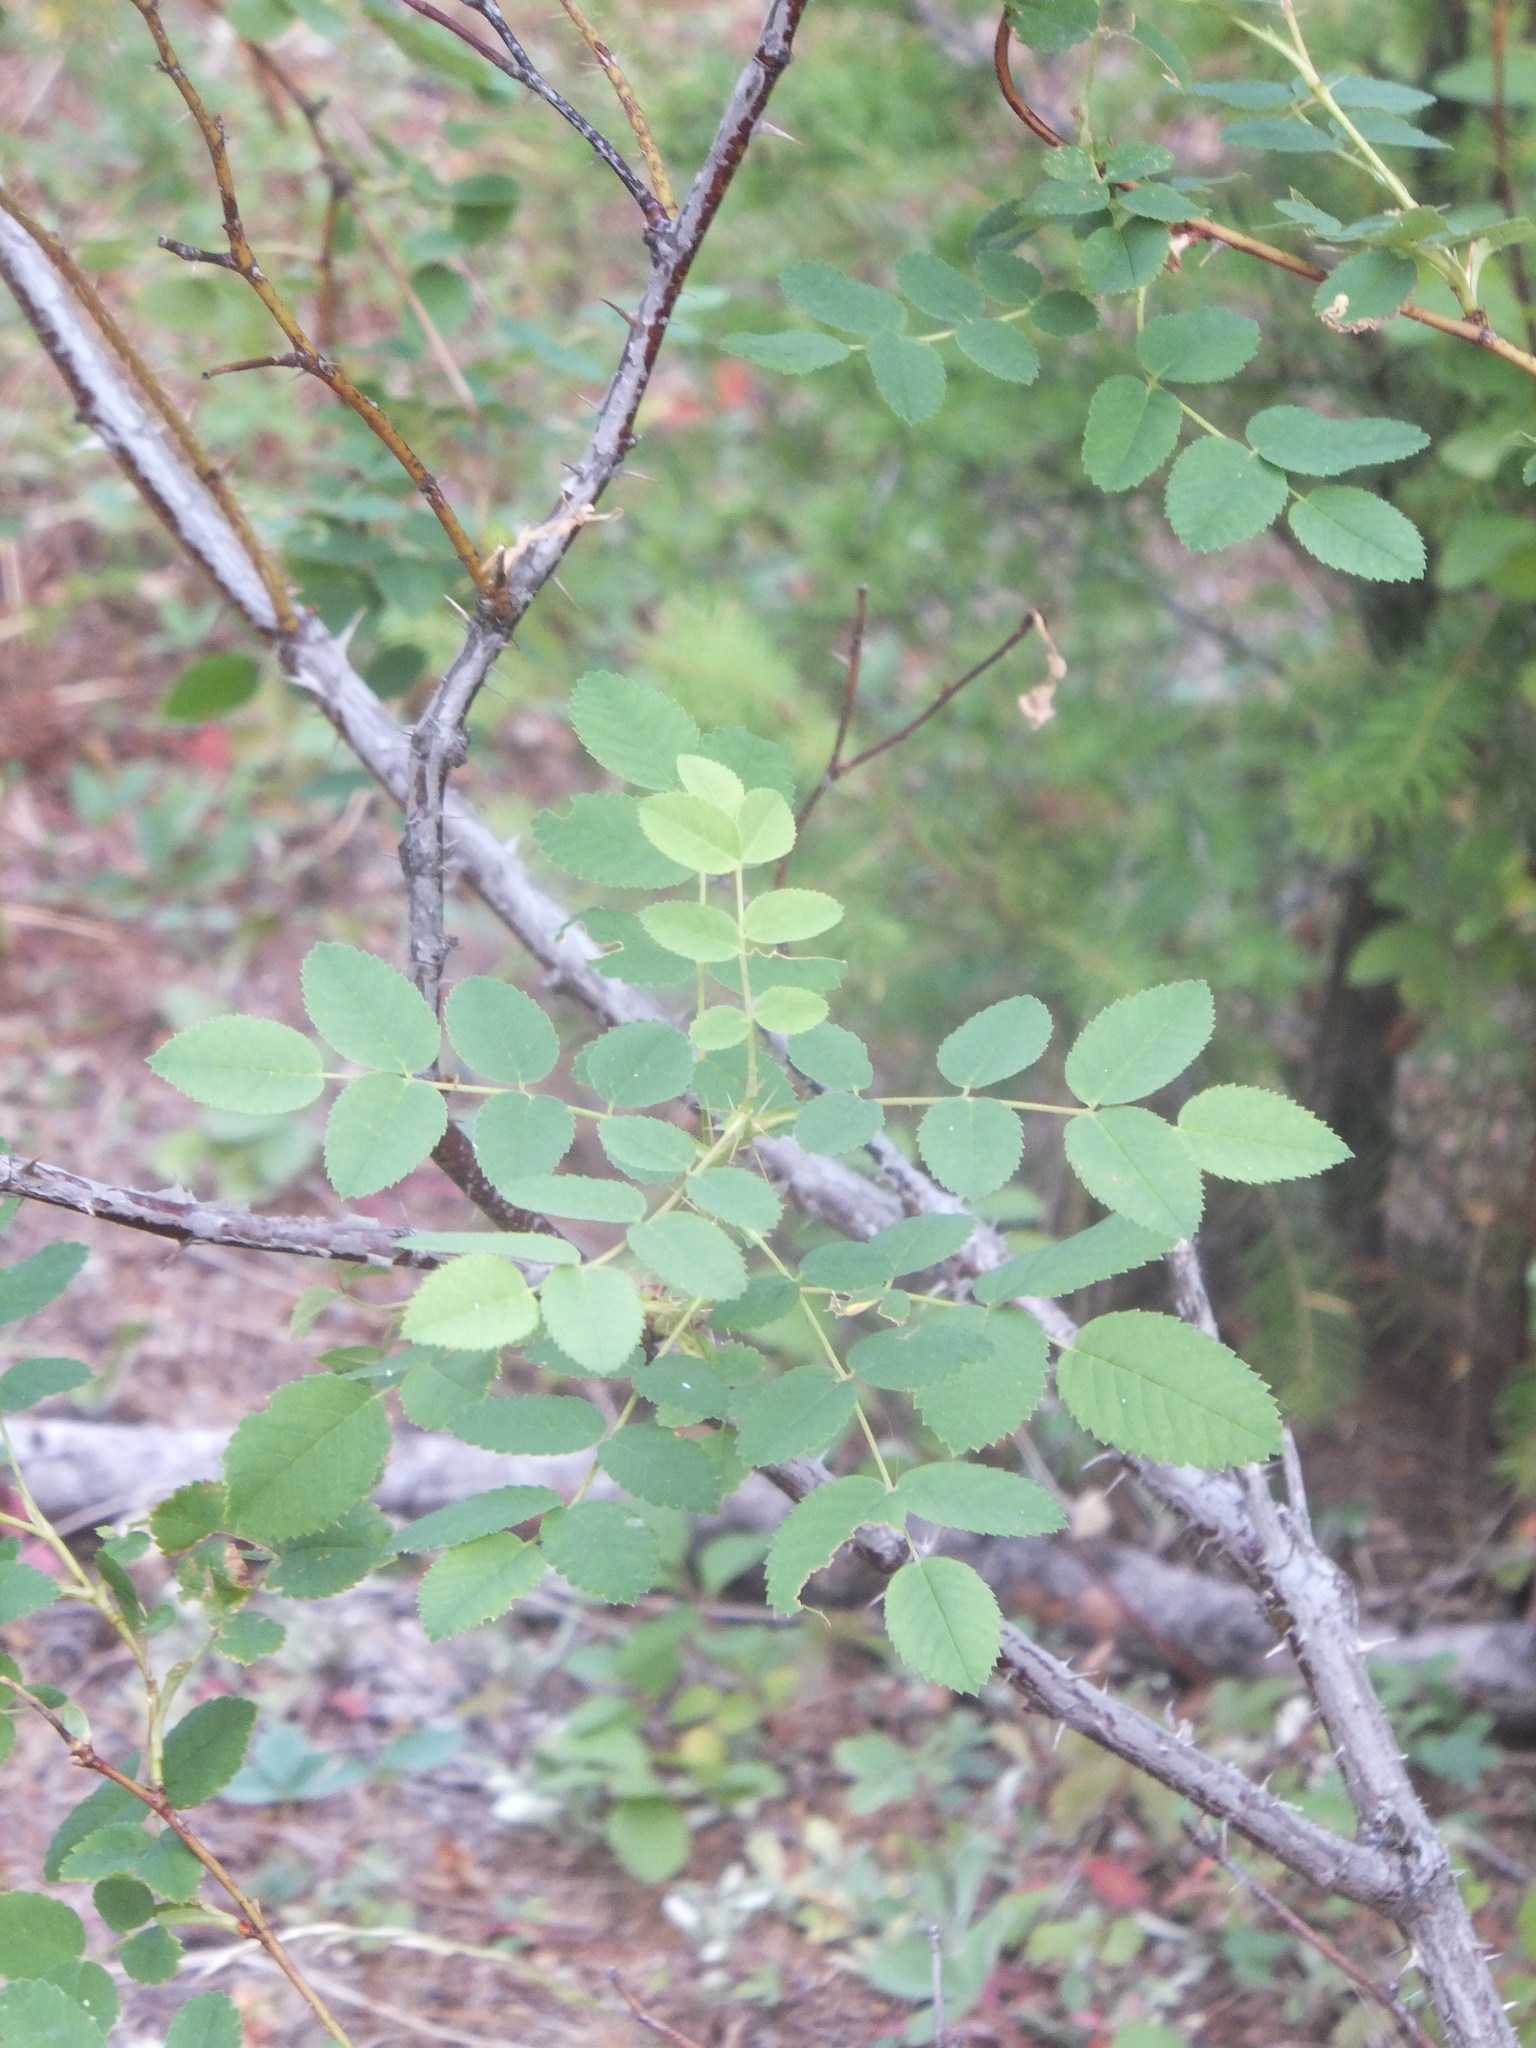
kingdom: Plantae
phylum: Tracheophyta
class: Magnoliopsida
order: Rosales
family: Rosaceae
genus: Rosa
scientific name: Rosa acicularis
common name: Prickly rose
